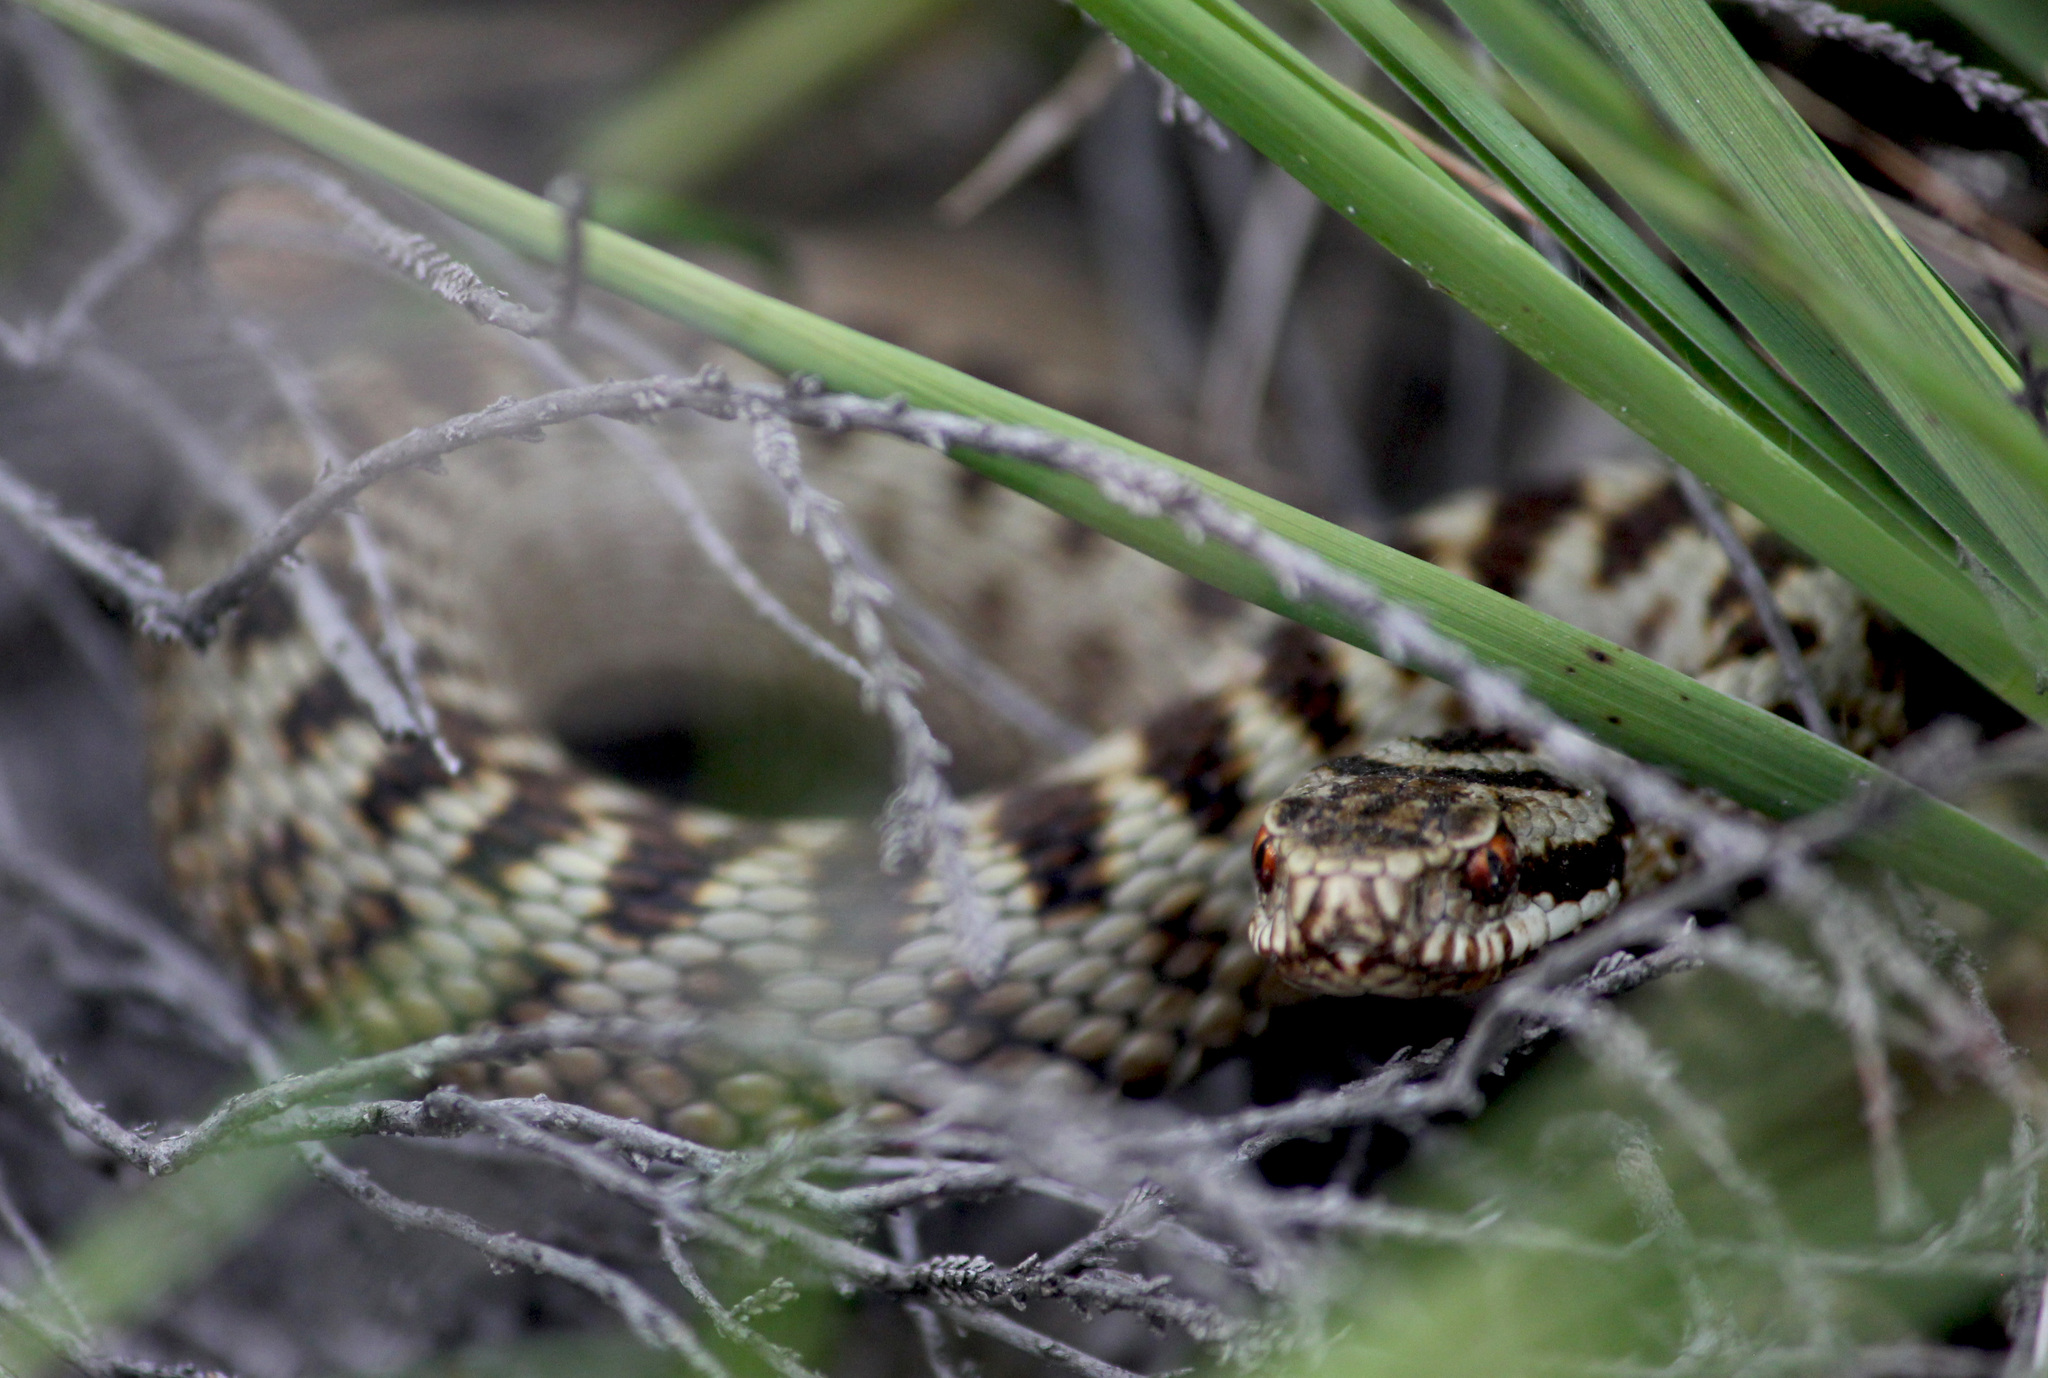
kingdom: Animalia
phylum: Chordata
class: Squamata
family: Viperidae
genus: Vipera
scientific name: Vipera berus
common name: Adder
